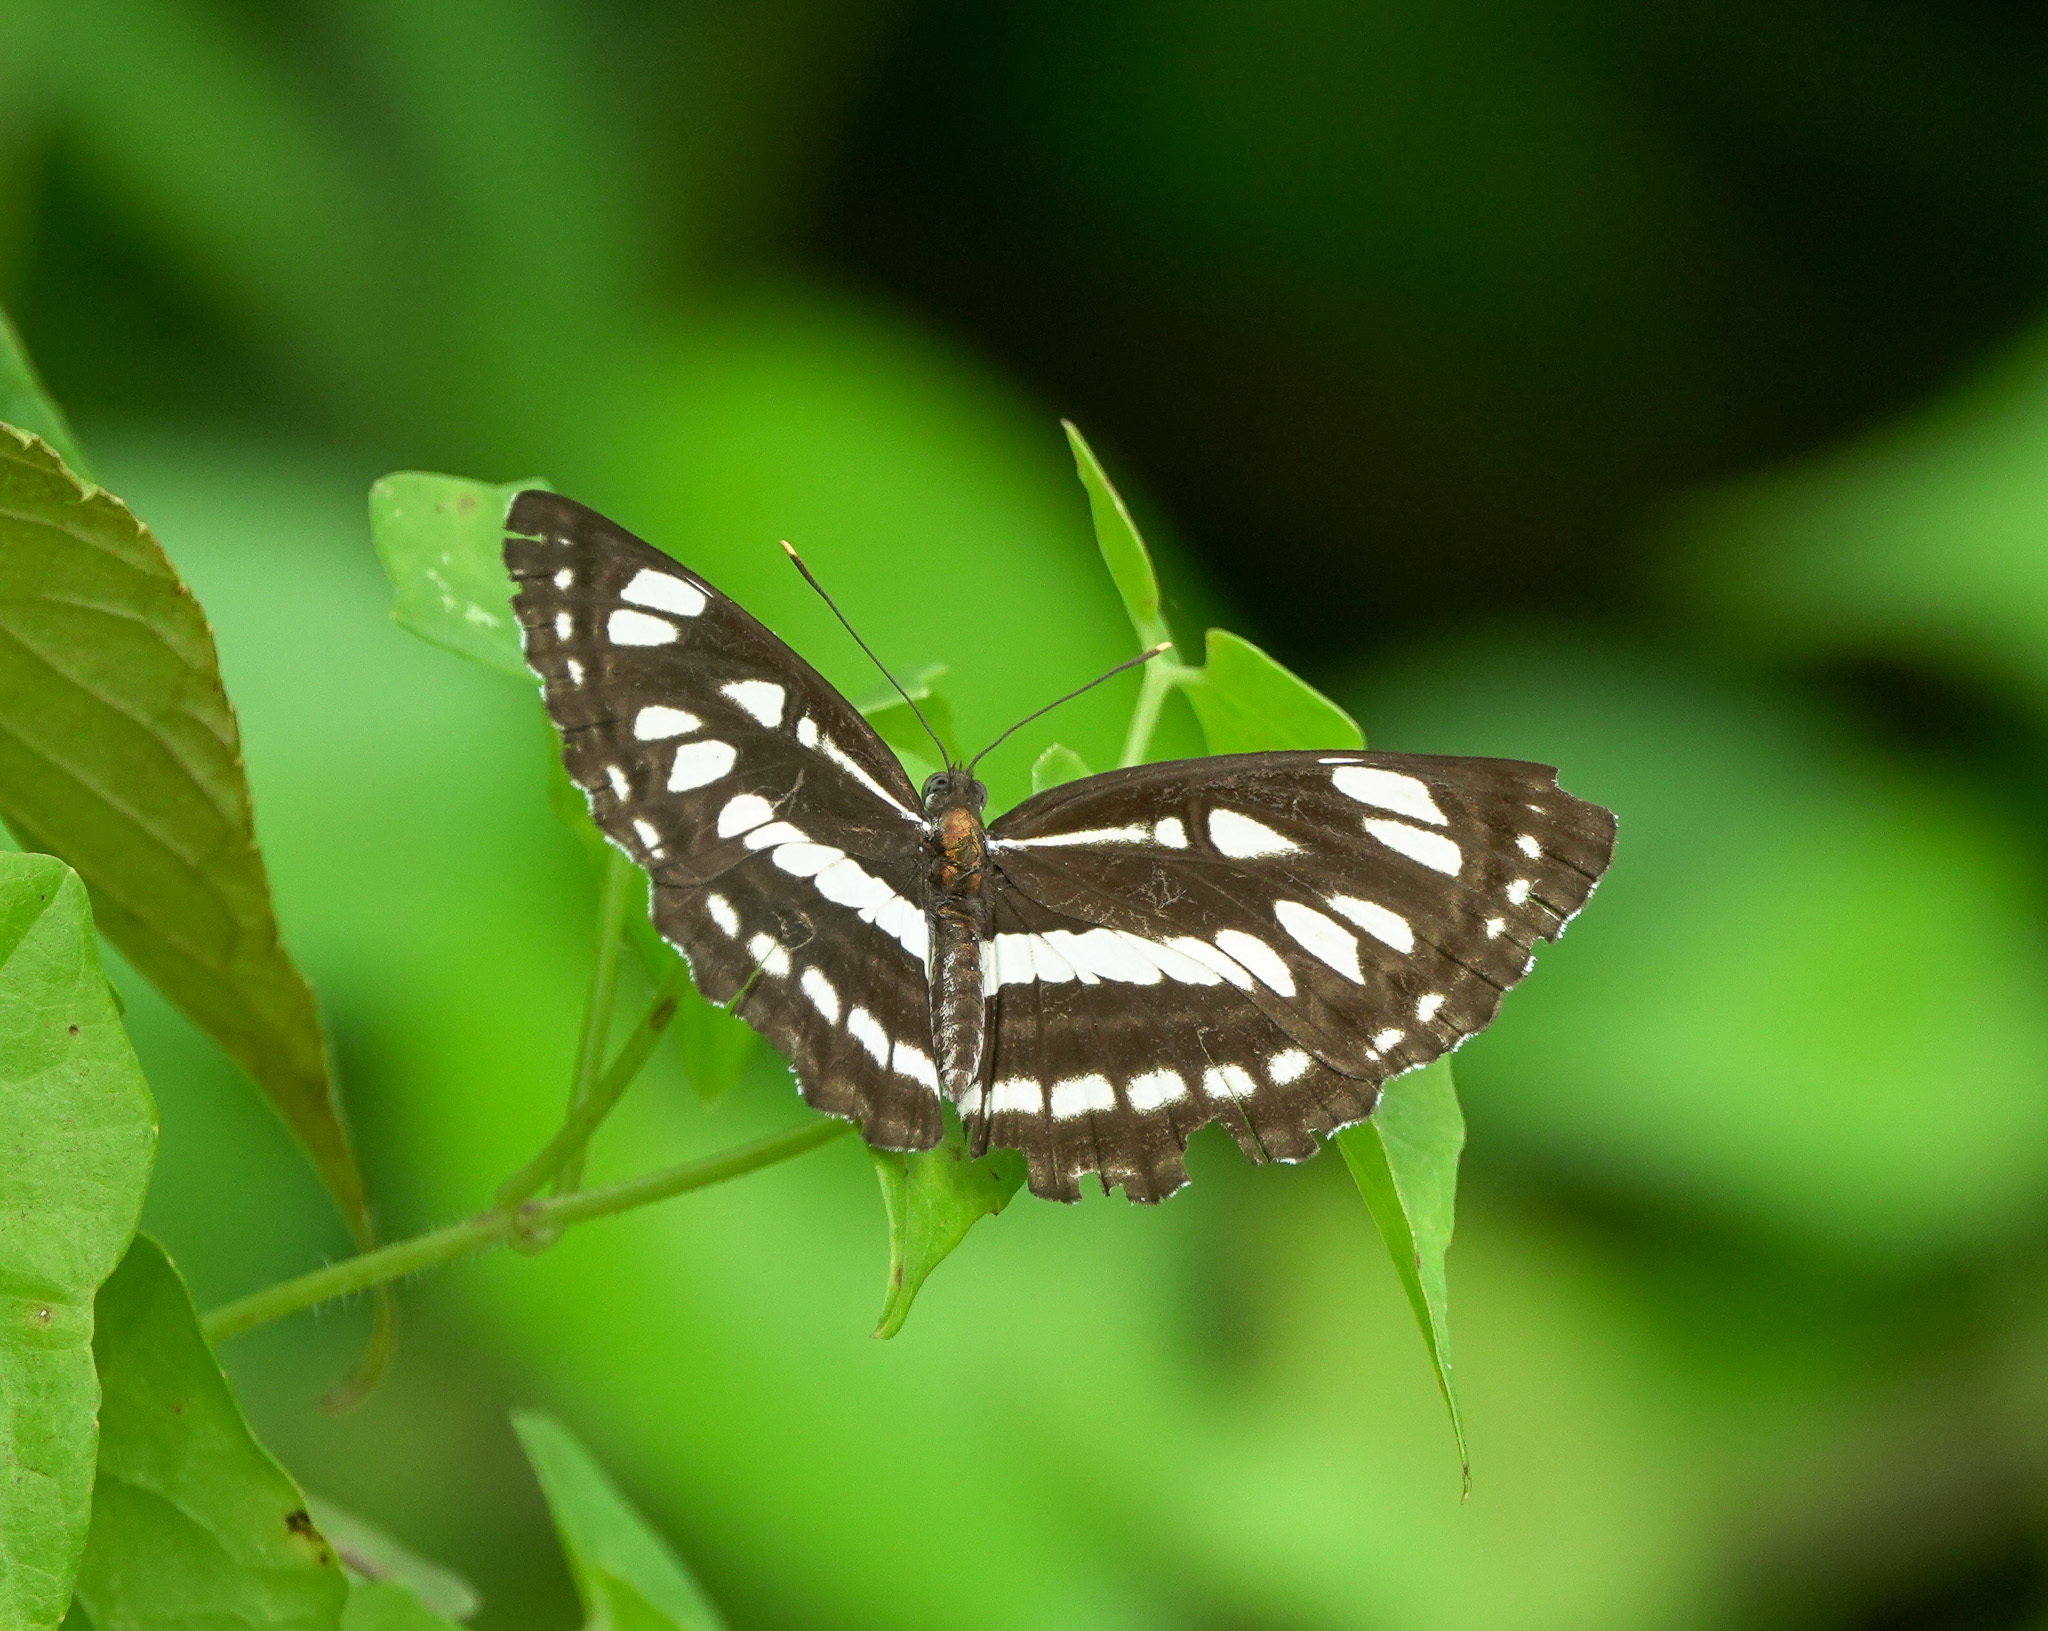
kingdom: Animalia
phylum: Arthropoda
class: Insecta
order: Lepidoptera
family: Nymphalidae
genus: Neptis
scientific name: Neptis hylas
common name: Common sailer
